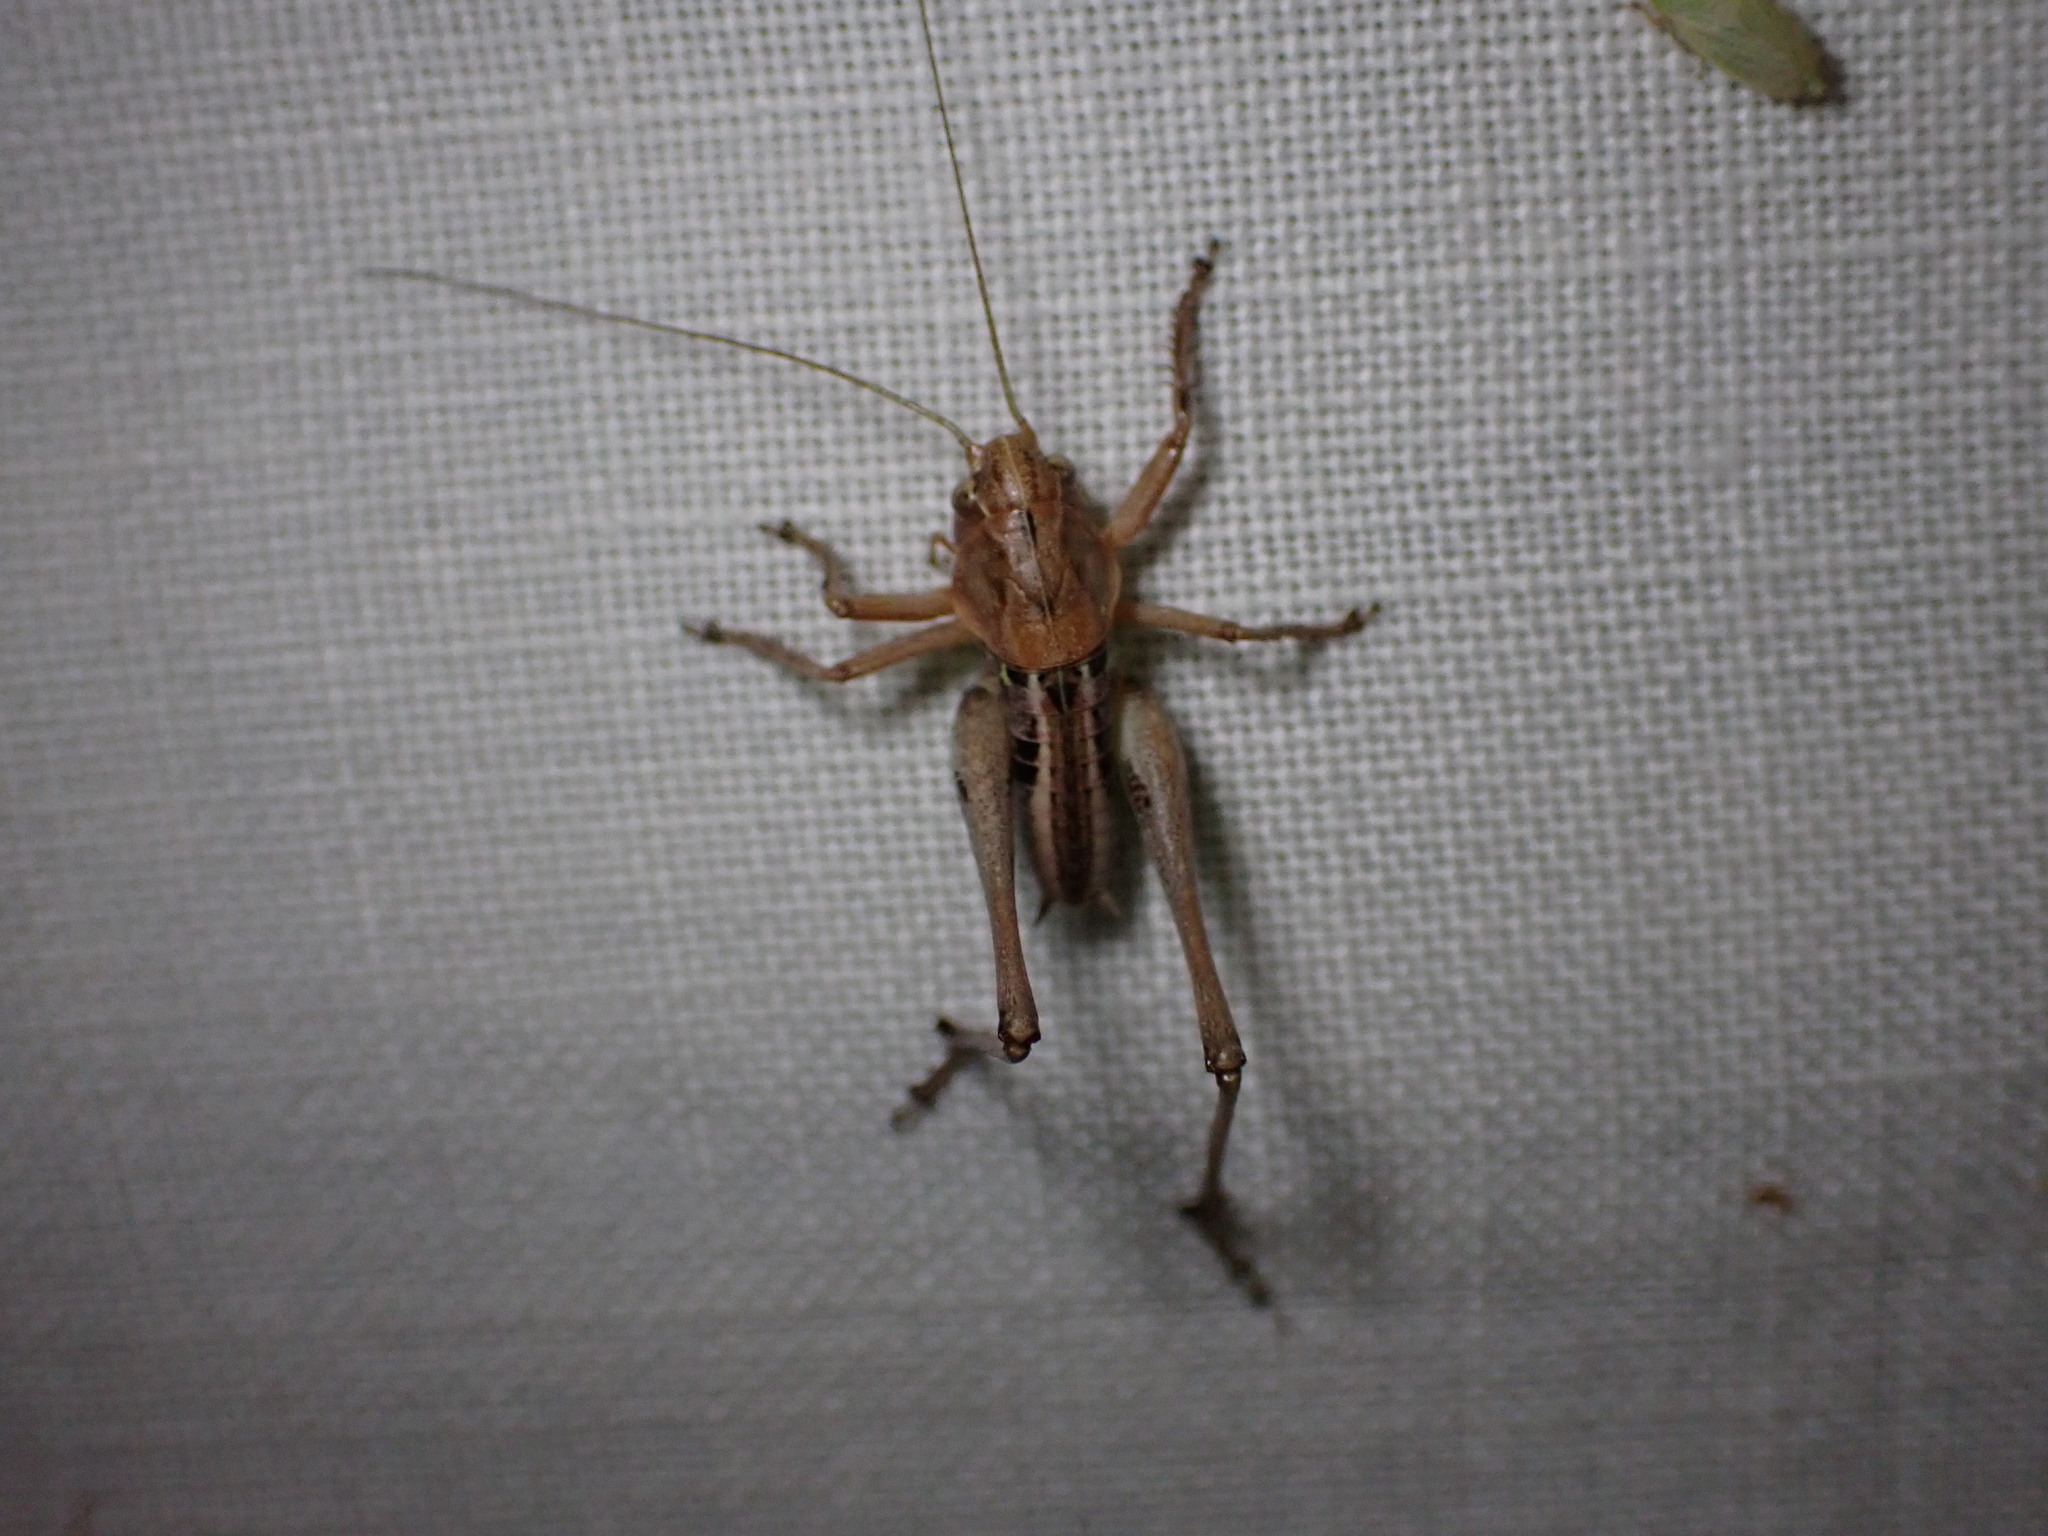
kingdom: Animalia
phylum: Arthropoda
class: Insecta
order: Orthoptera
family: Tettigoniidae
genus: Decticus
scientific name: Decticus albifrons
